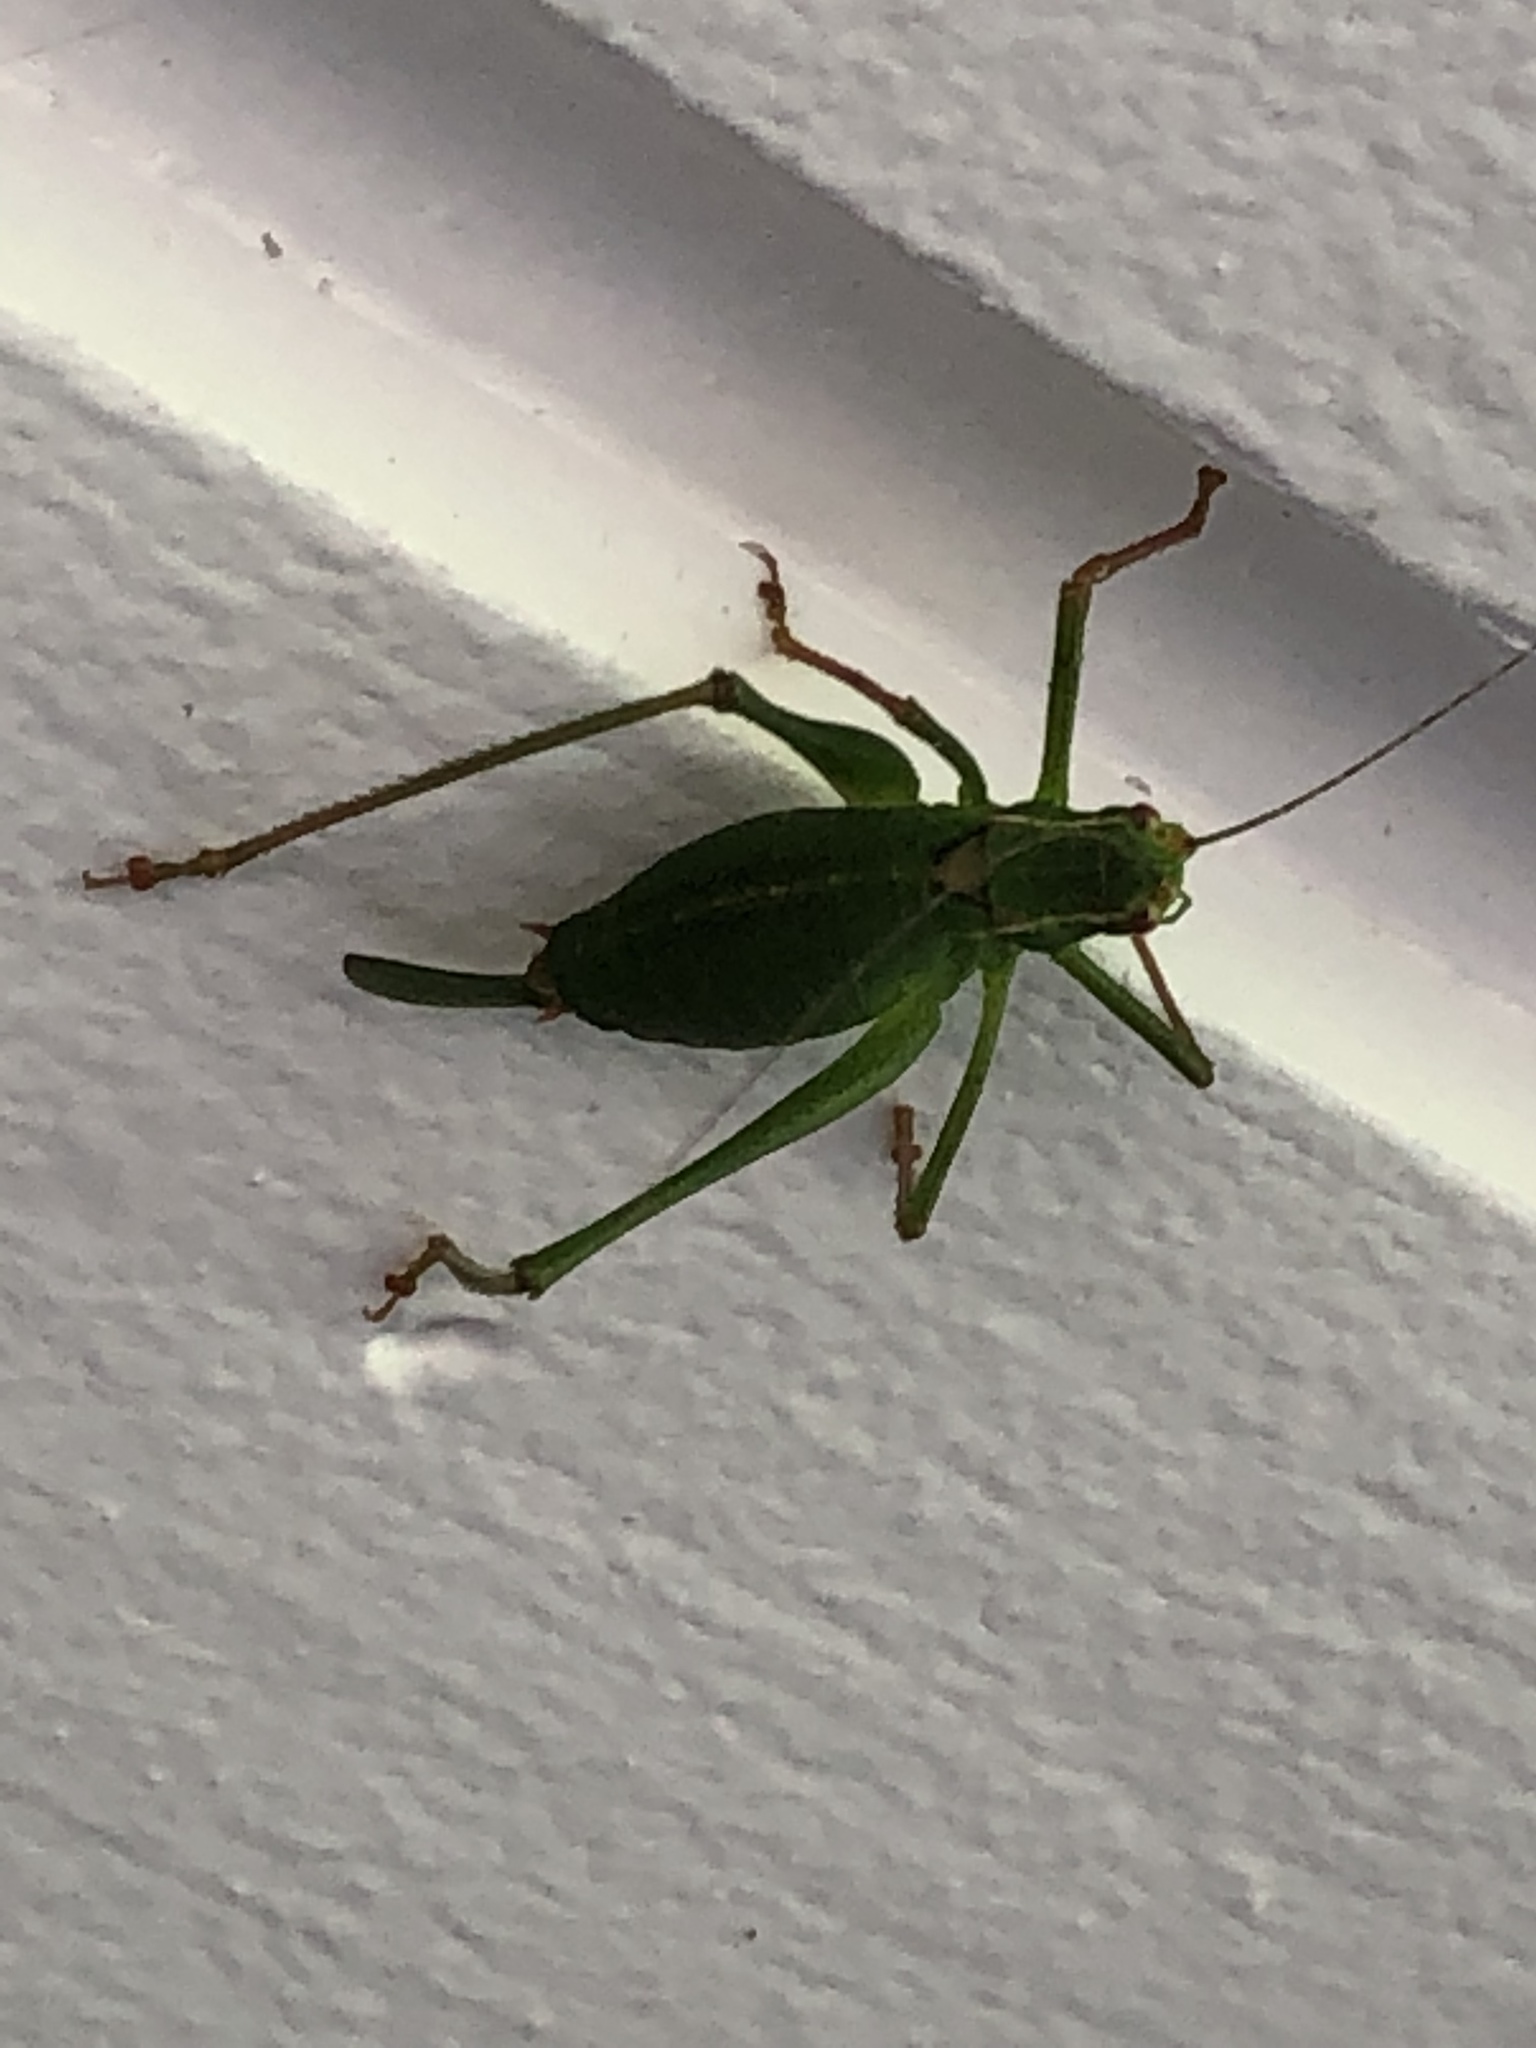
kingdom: Animalia
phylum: Arthropoda
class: Insecta
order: Orthoptera
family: Tettigoniidae
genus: Leptophyes
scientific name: Leptophyes punctatissima
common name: Speckled bush-cricket
